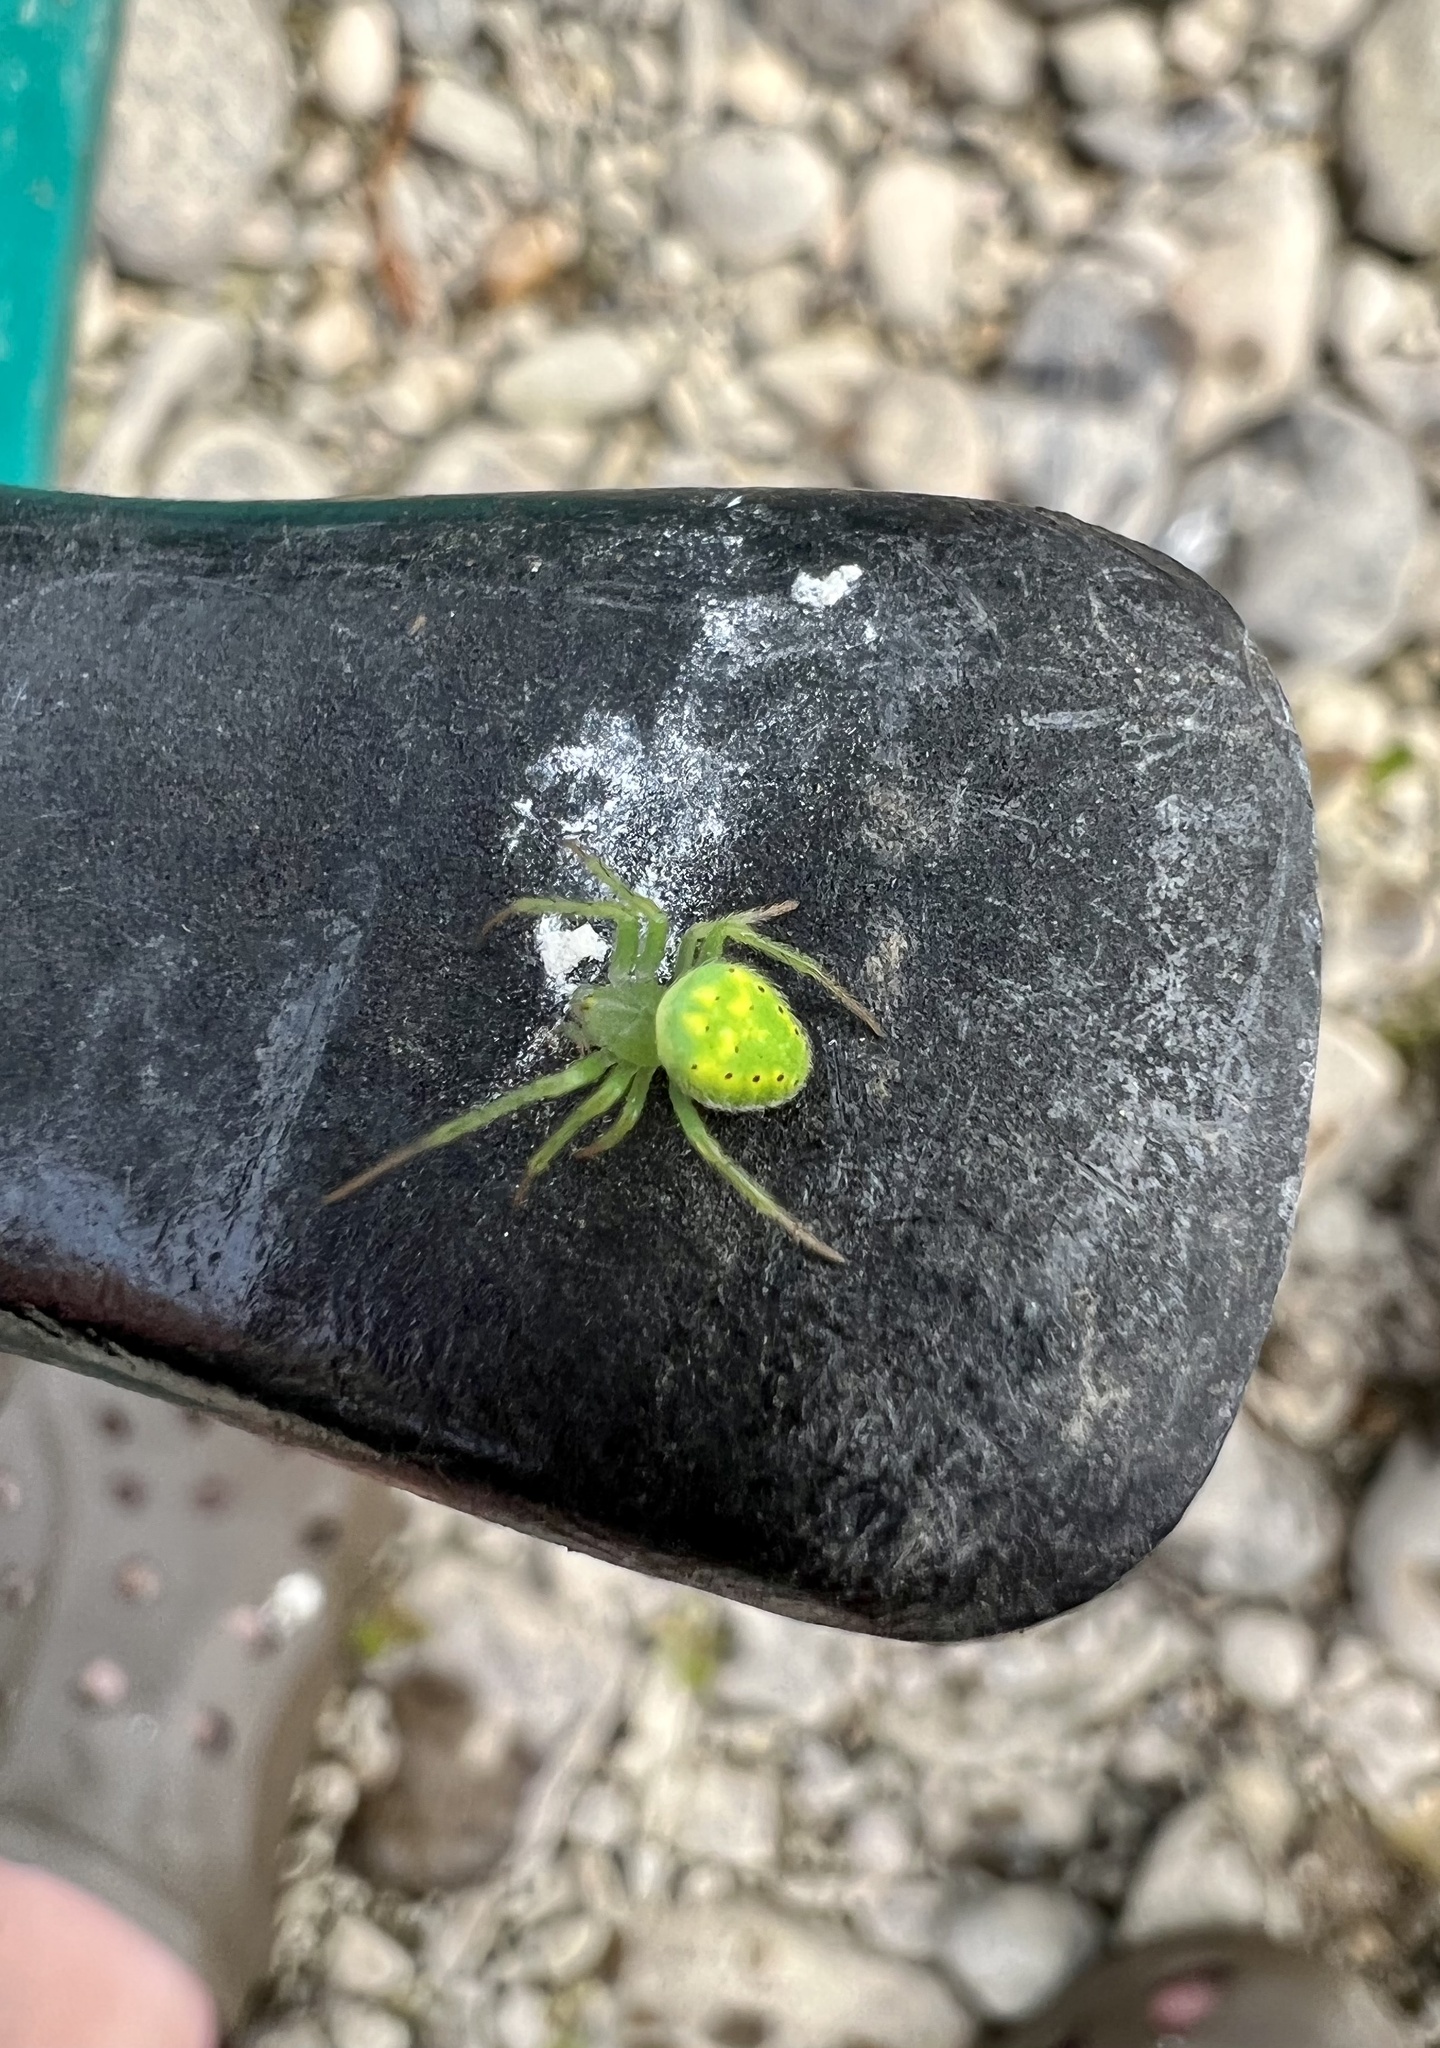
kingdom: Animalia
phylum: Arthropoda
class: Arachnida
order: Araneae
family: Araneidae
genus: Araneus
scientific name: Araneus cingulatus
